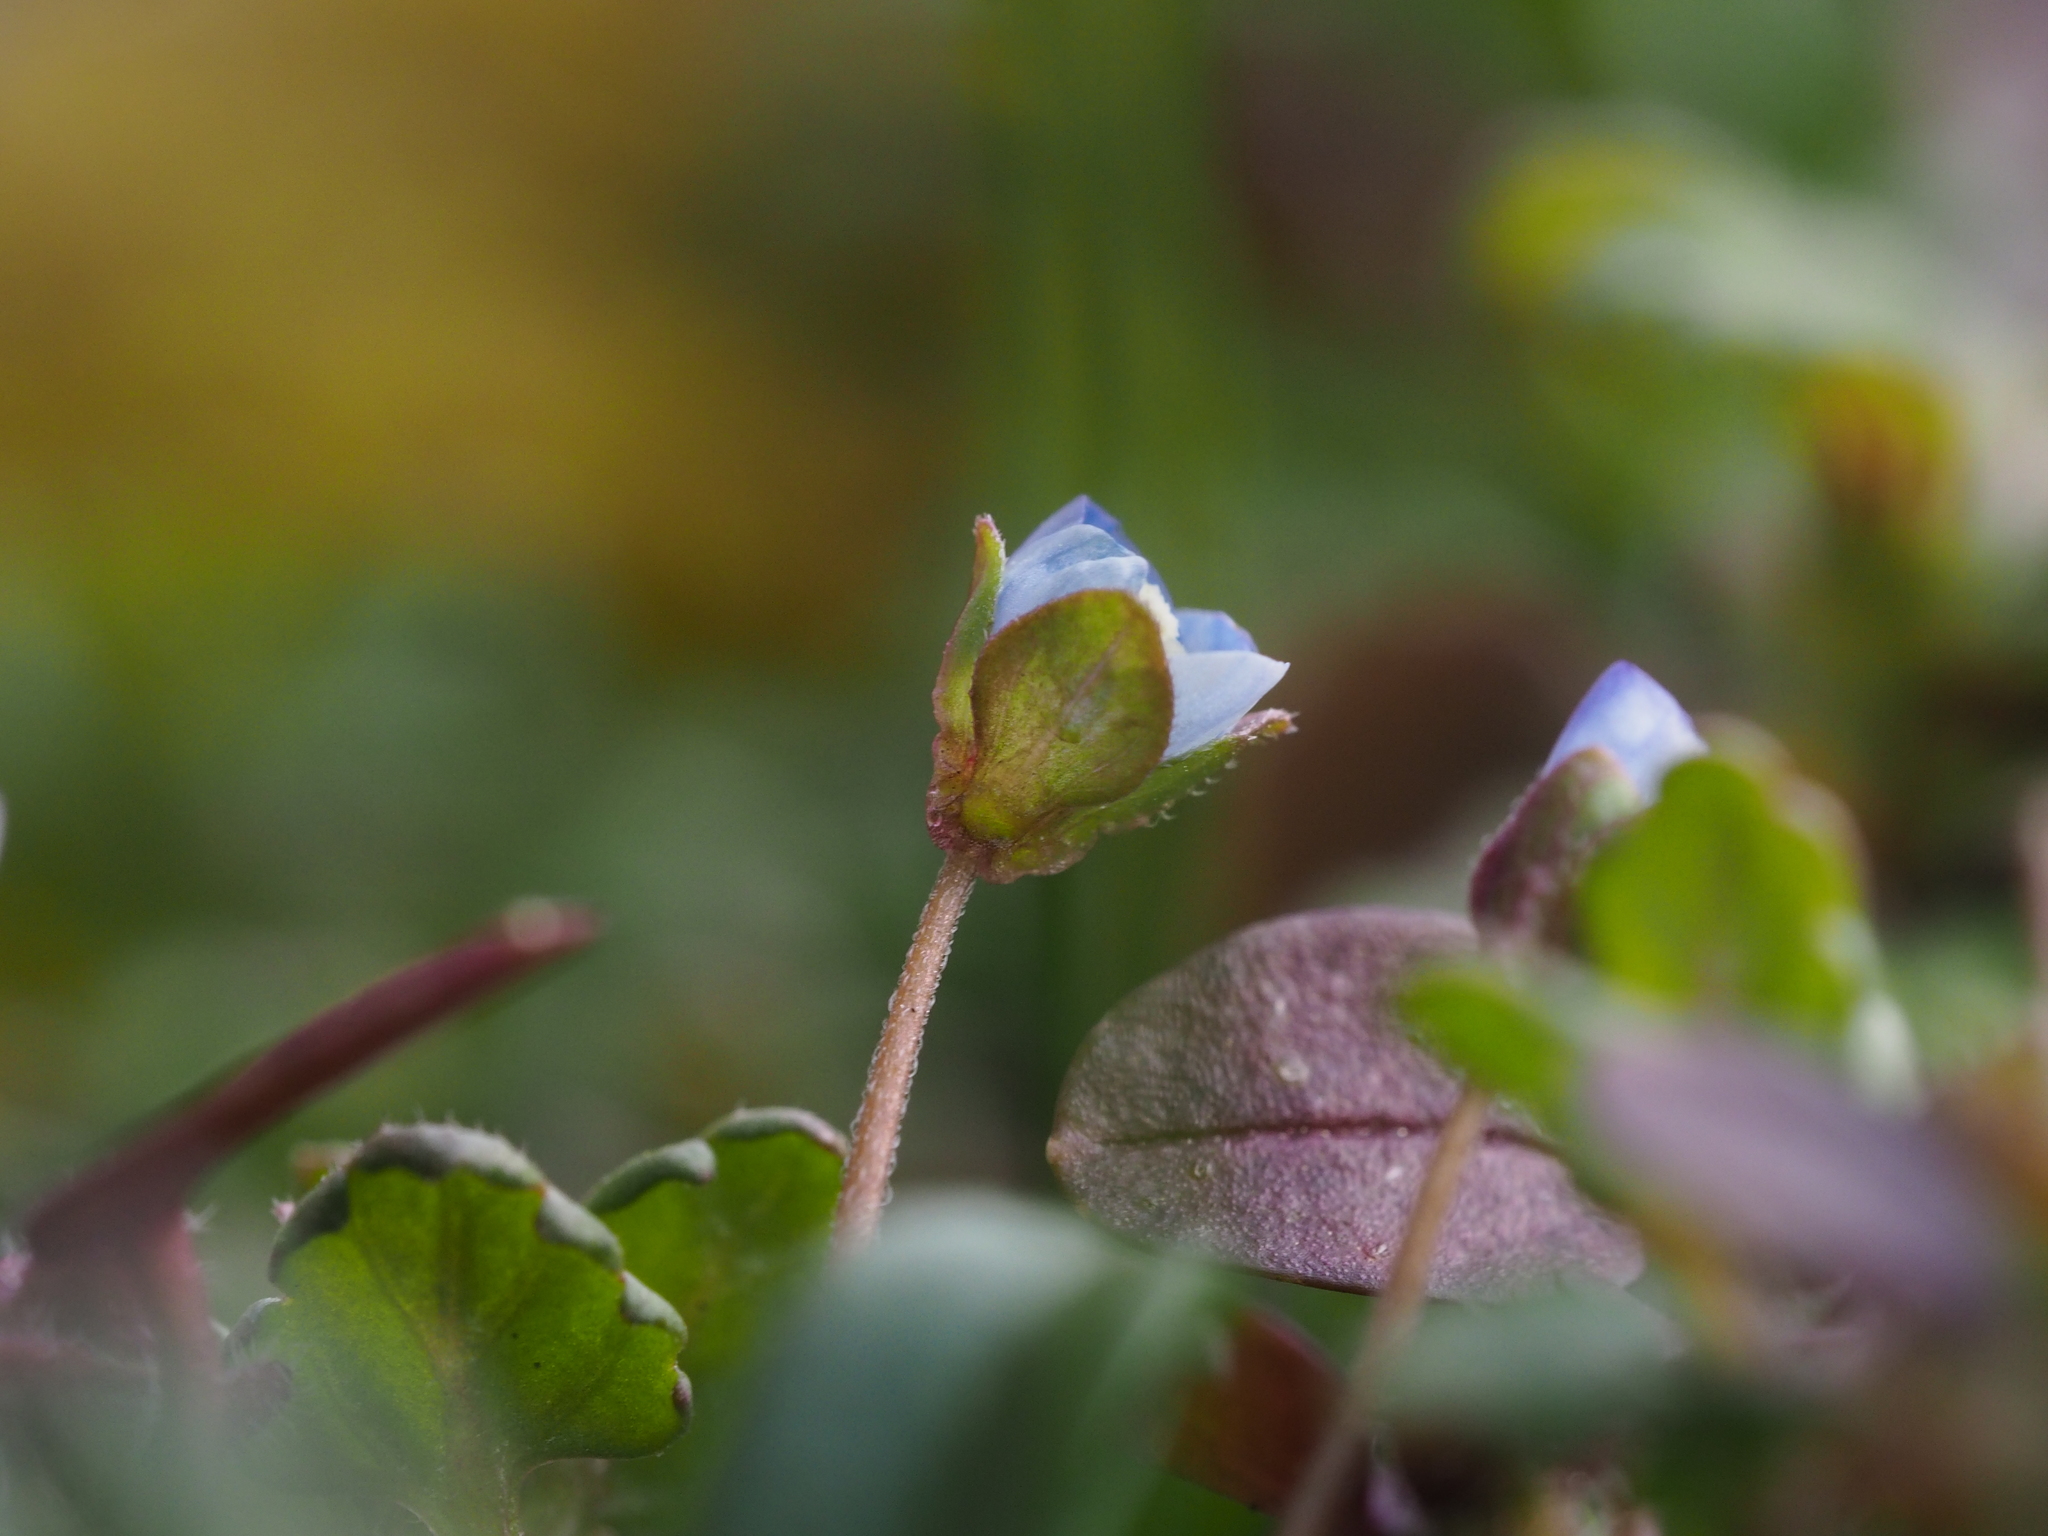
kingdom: Plantae
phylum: Tracheophyta
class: Magnoliopsida
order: Lamiales
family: Plantaginaceae
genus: Veronica
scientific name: Veronica persica
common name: Common field-speedwell
